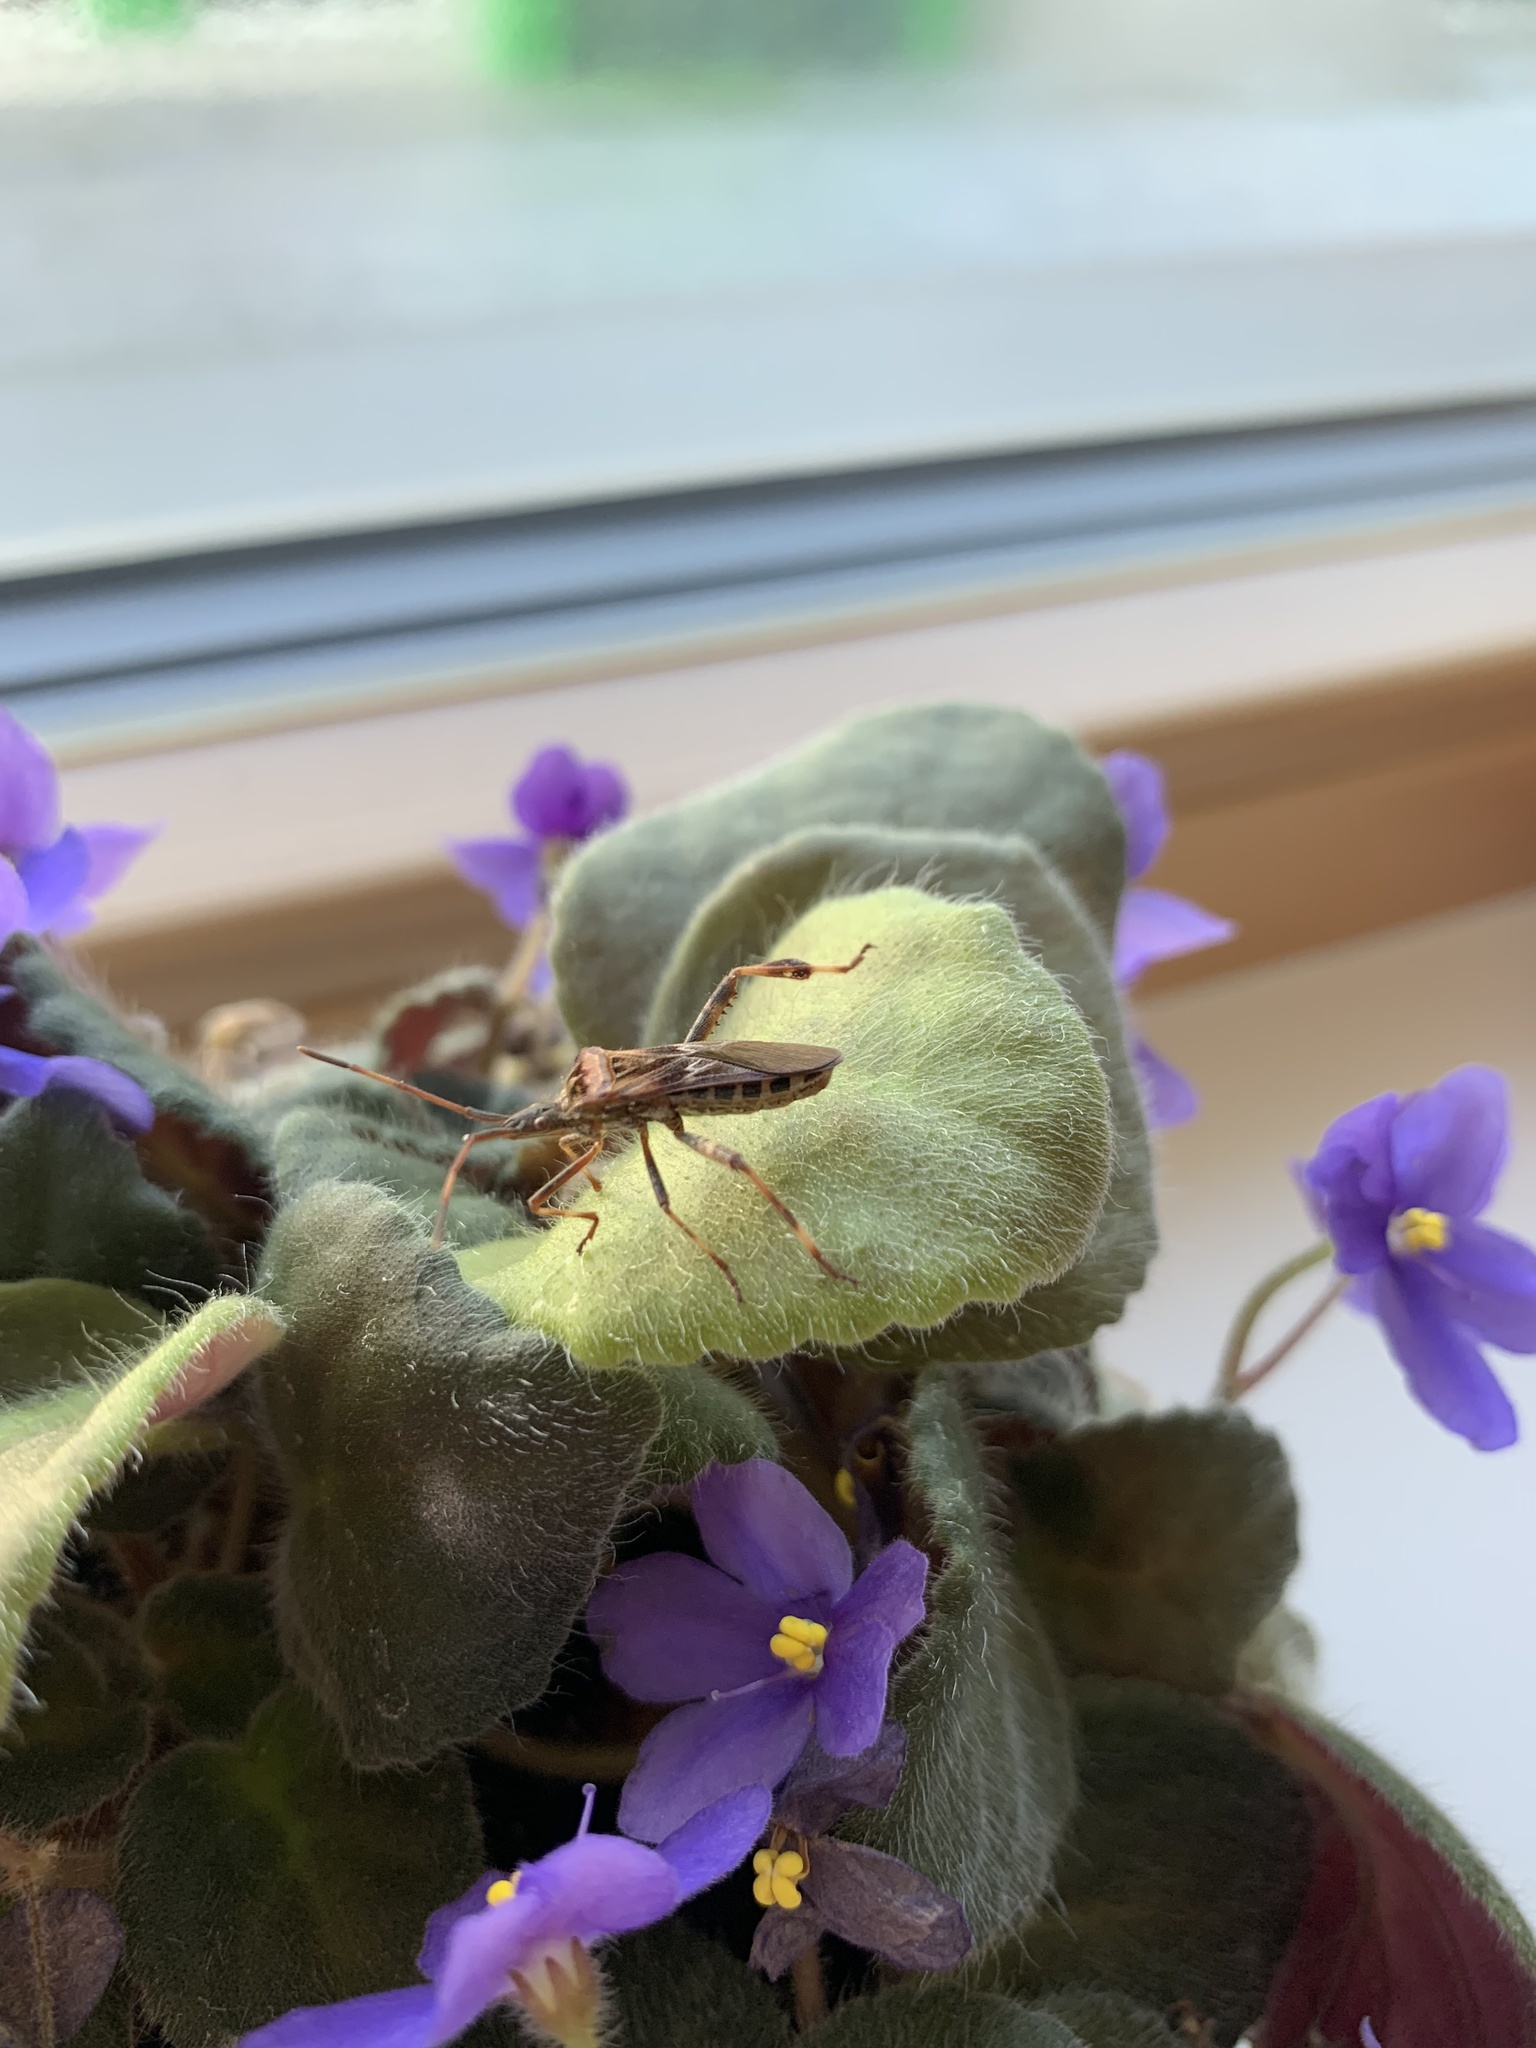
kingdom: Animalia
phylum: Arthropoda
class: Insecta
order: Hemiptera
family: Coreidae
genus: Leptoglossus
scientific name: Leptoglossus occidentalis
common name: Western conifer-seed bug
